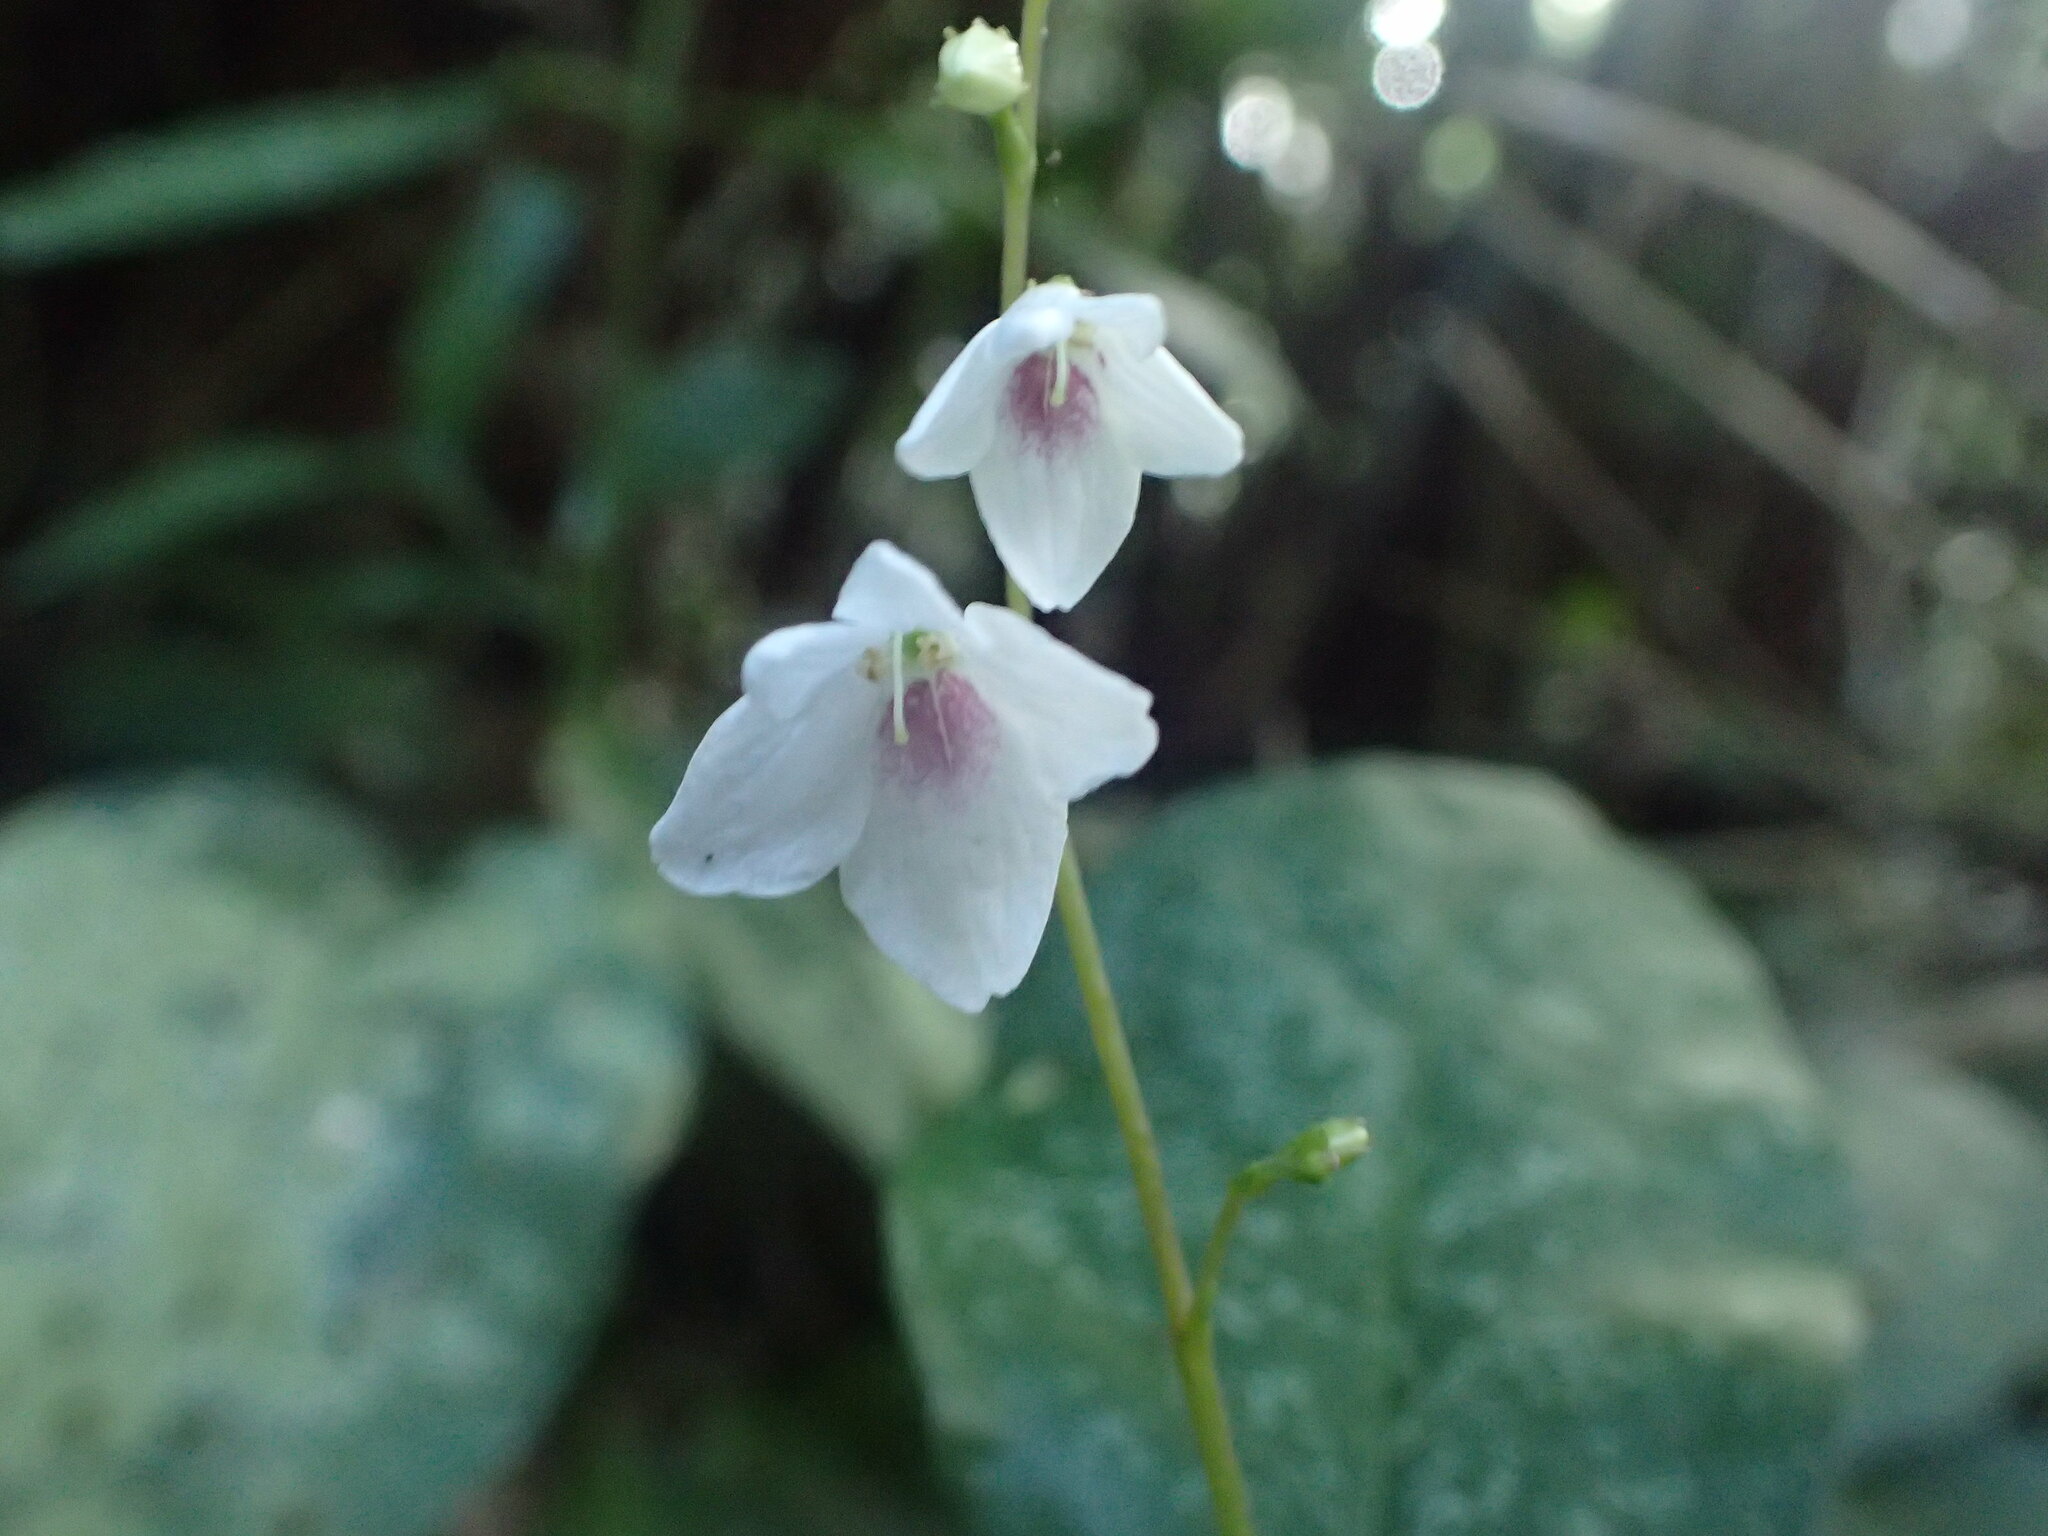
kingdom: Plantae
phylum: Tracheophyta
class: Magnoliopsida
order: Lamiales
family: Acanthaceae
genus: Codonacanthus
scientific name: Codonacanthus pauciflorus
